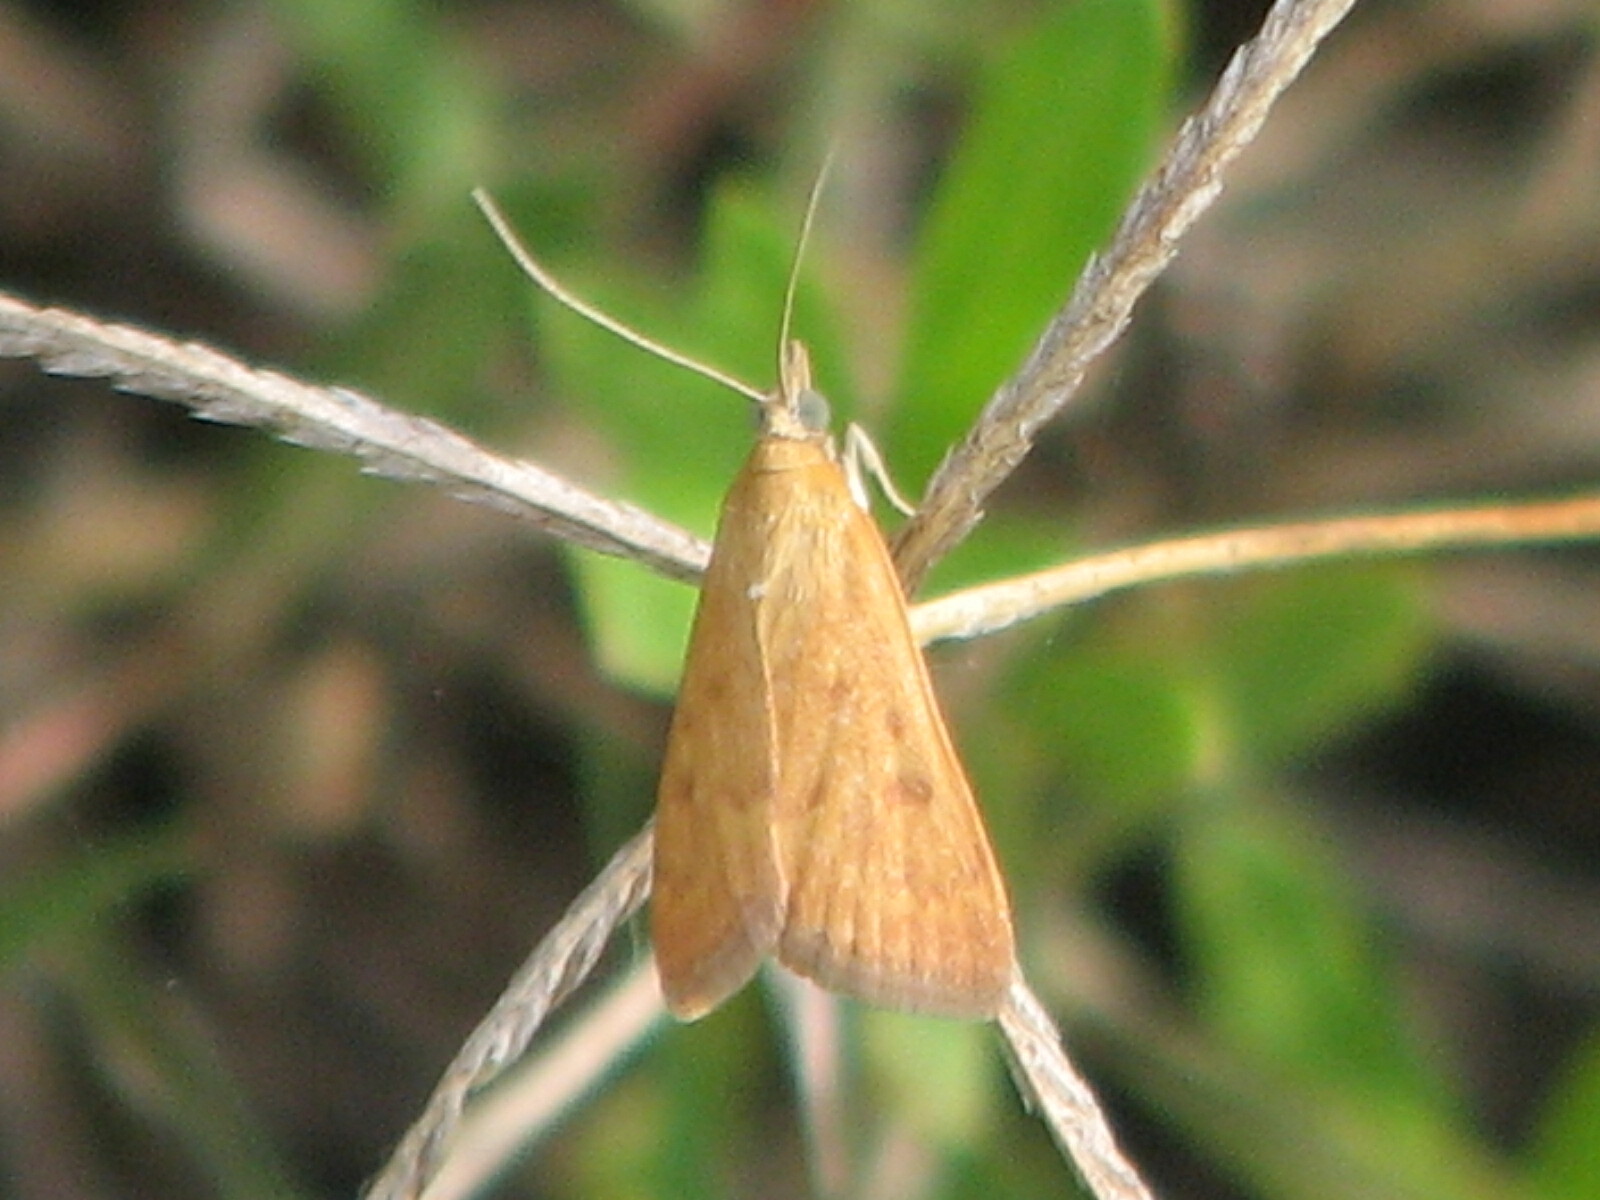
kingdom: Animalia
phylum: Arthropoda
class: Insecta
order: Lepidoptera
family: Crambidae
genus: Achyra
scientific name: Achyra rantalis
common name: Garden webworm
